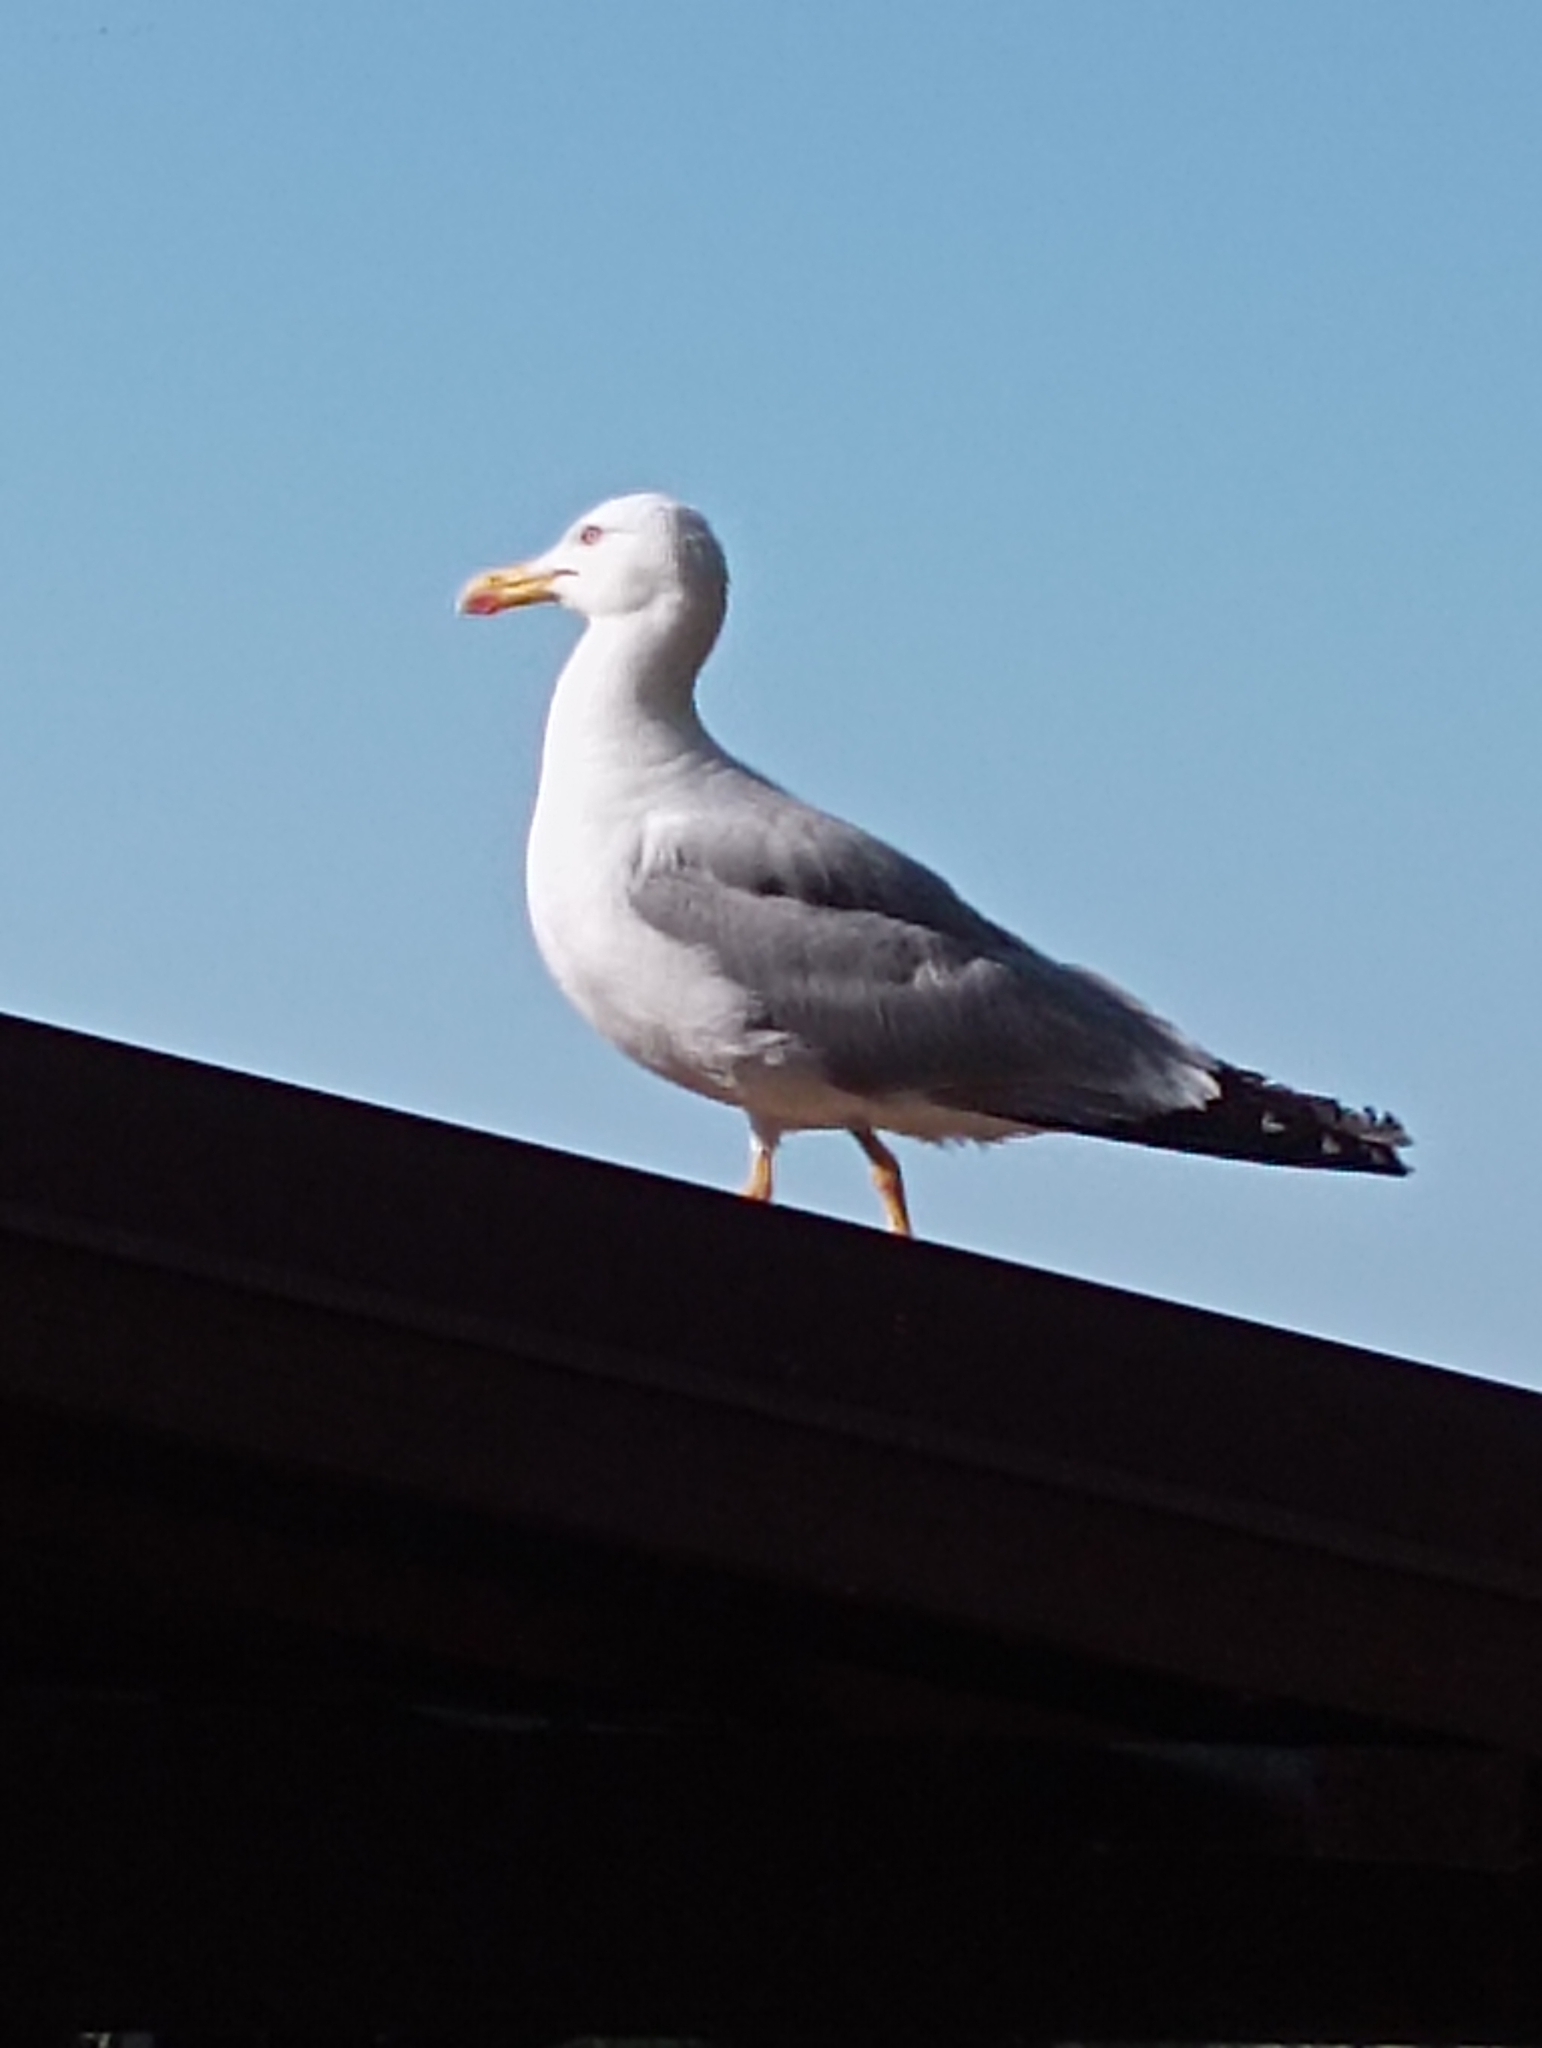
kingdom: Animalia
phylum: Chordata
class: Aves
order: Charadriiformes
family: Laridae
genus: Larus
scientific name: Larus michahellis
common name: Yellow-legged gull
